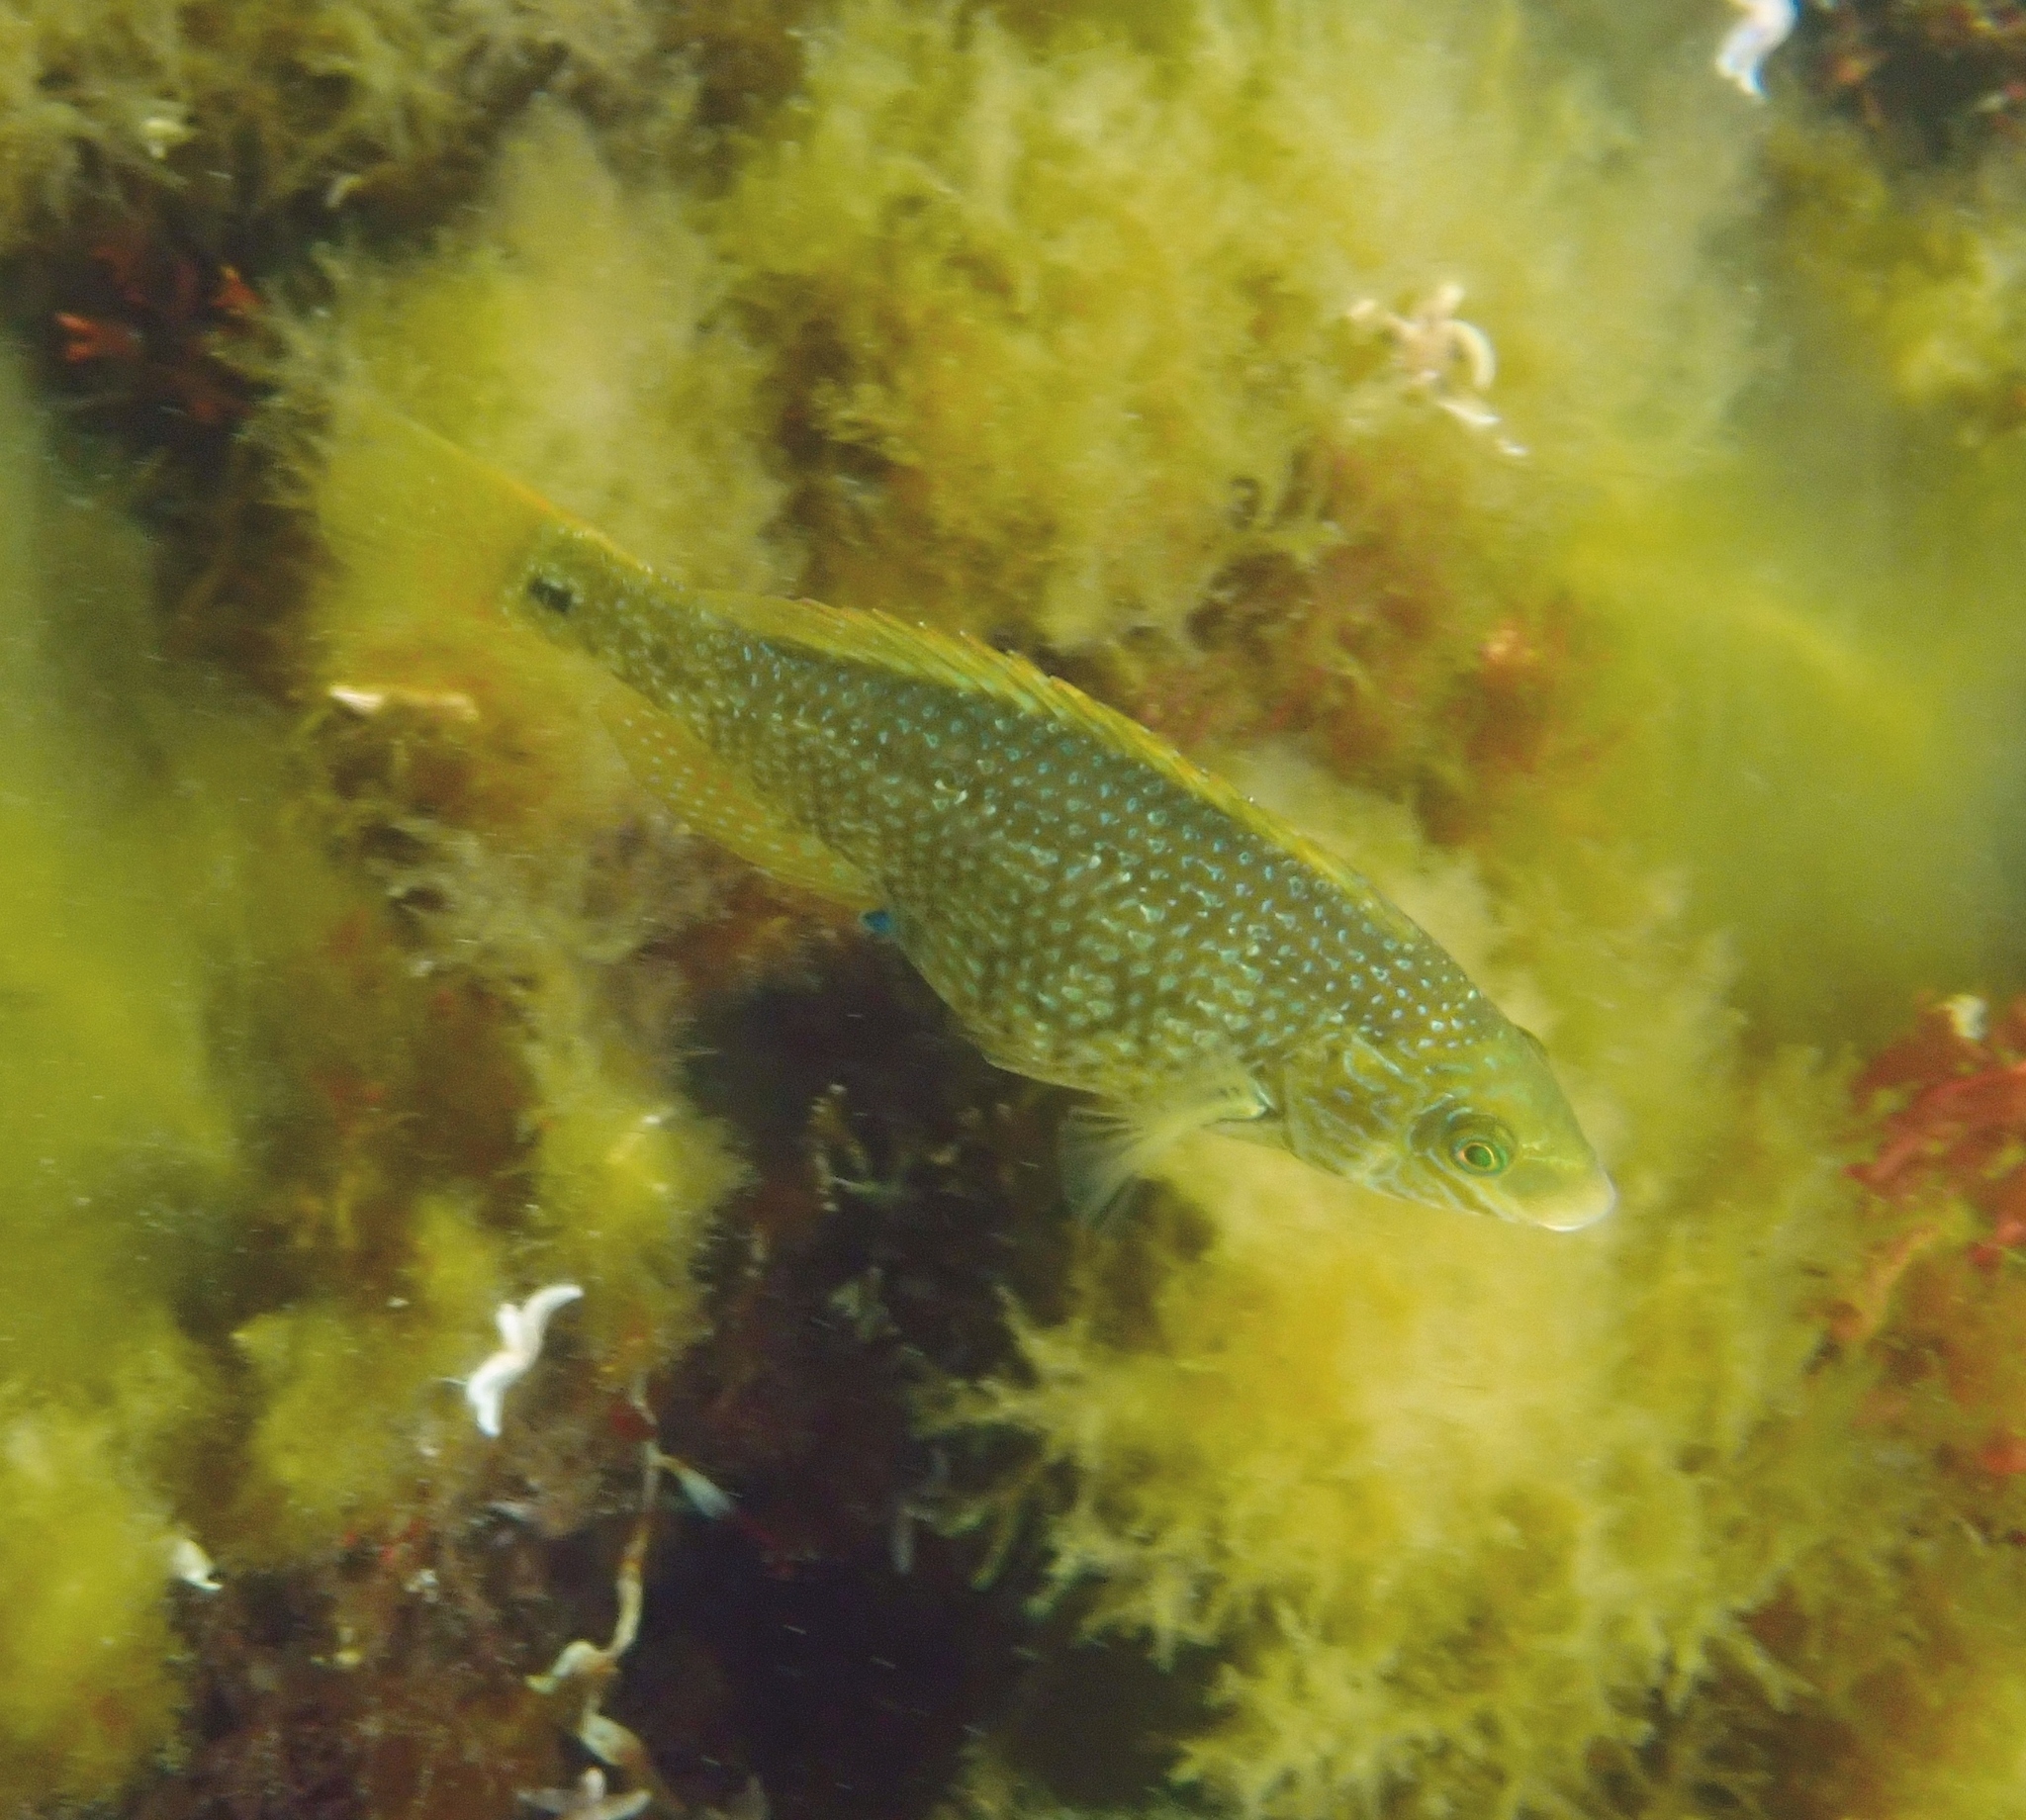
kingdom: Animalia
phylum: Chordata
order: Perciformes
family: Labridae
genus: Symphodus
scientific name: Symphodus melops
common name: Corkwing
